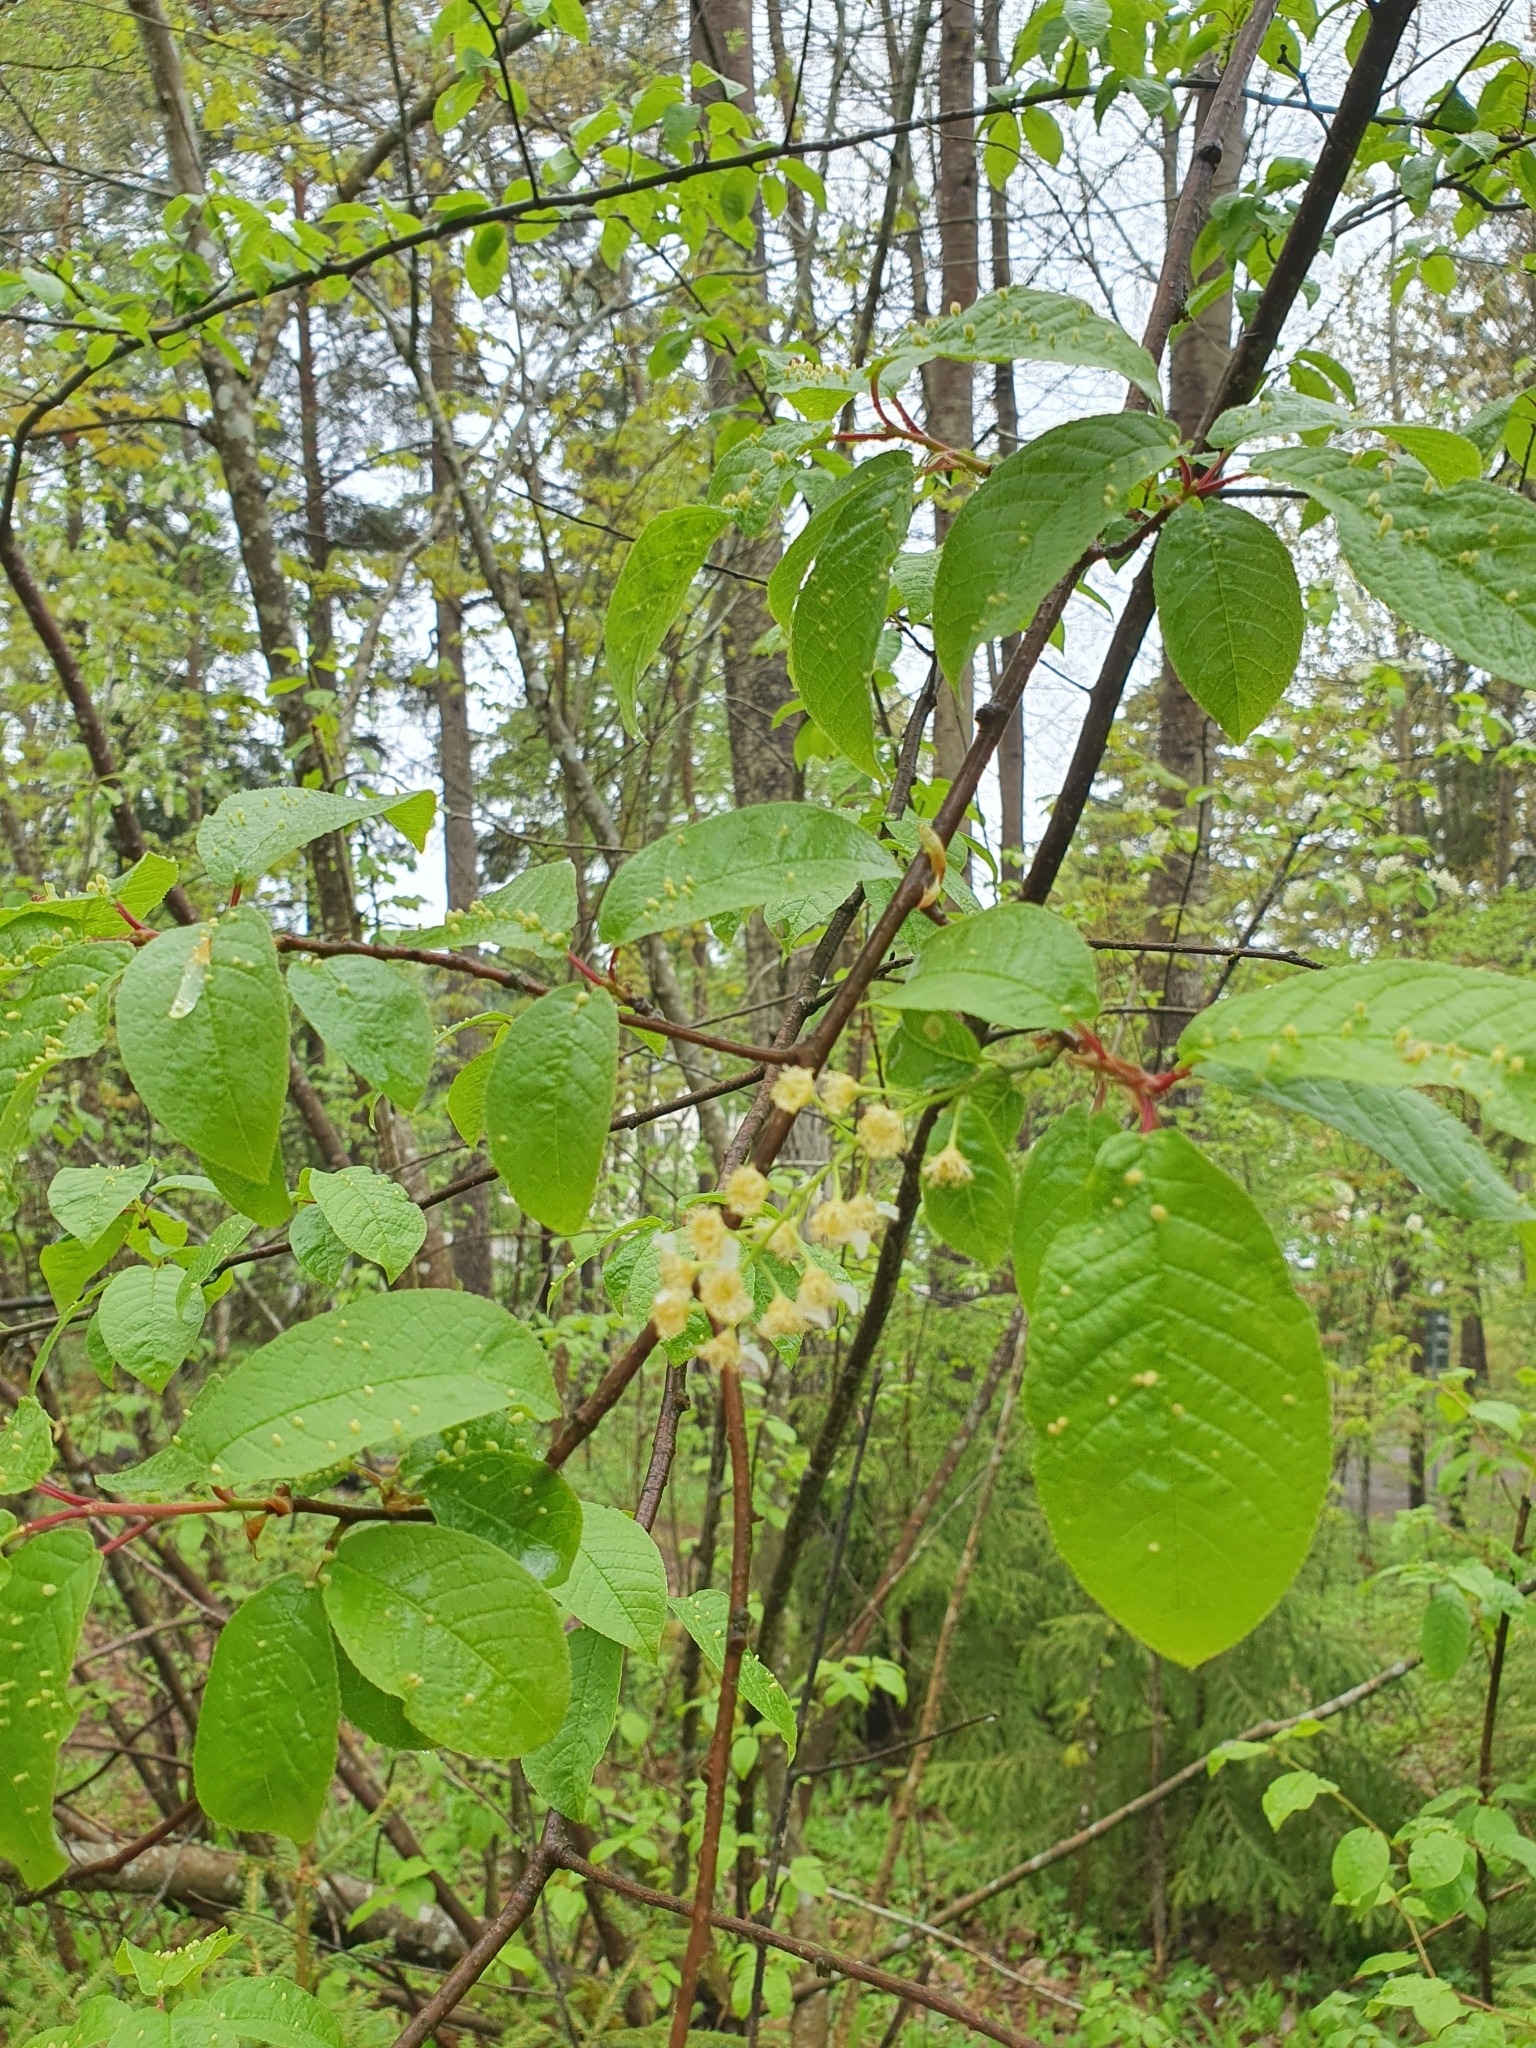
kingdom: Plantae
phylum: Tracheophyta
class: Magnoliopsida
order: Rosales
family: Rosaceae
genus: Prunus
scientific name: Prunus padus
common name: Bird cherry
